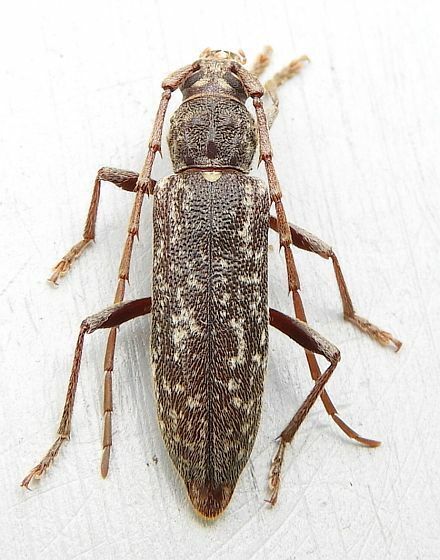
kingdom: Animalia
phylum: Arthropoda
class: Insecta
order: Coleoptera
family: Cerambycidae
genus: Parelaphidion
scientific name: Parelaphidion aspersum
